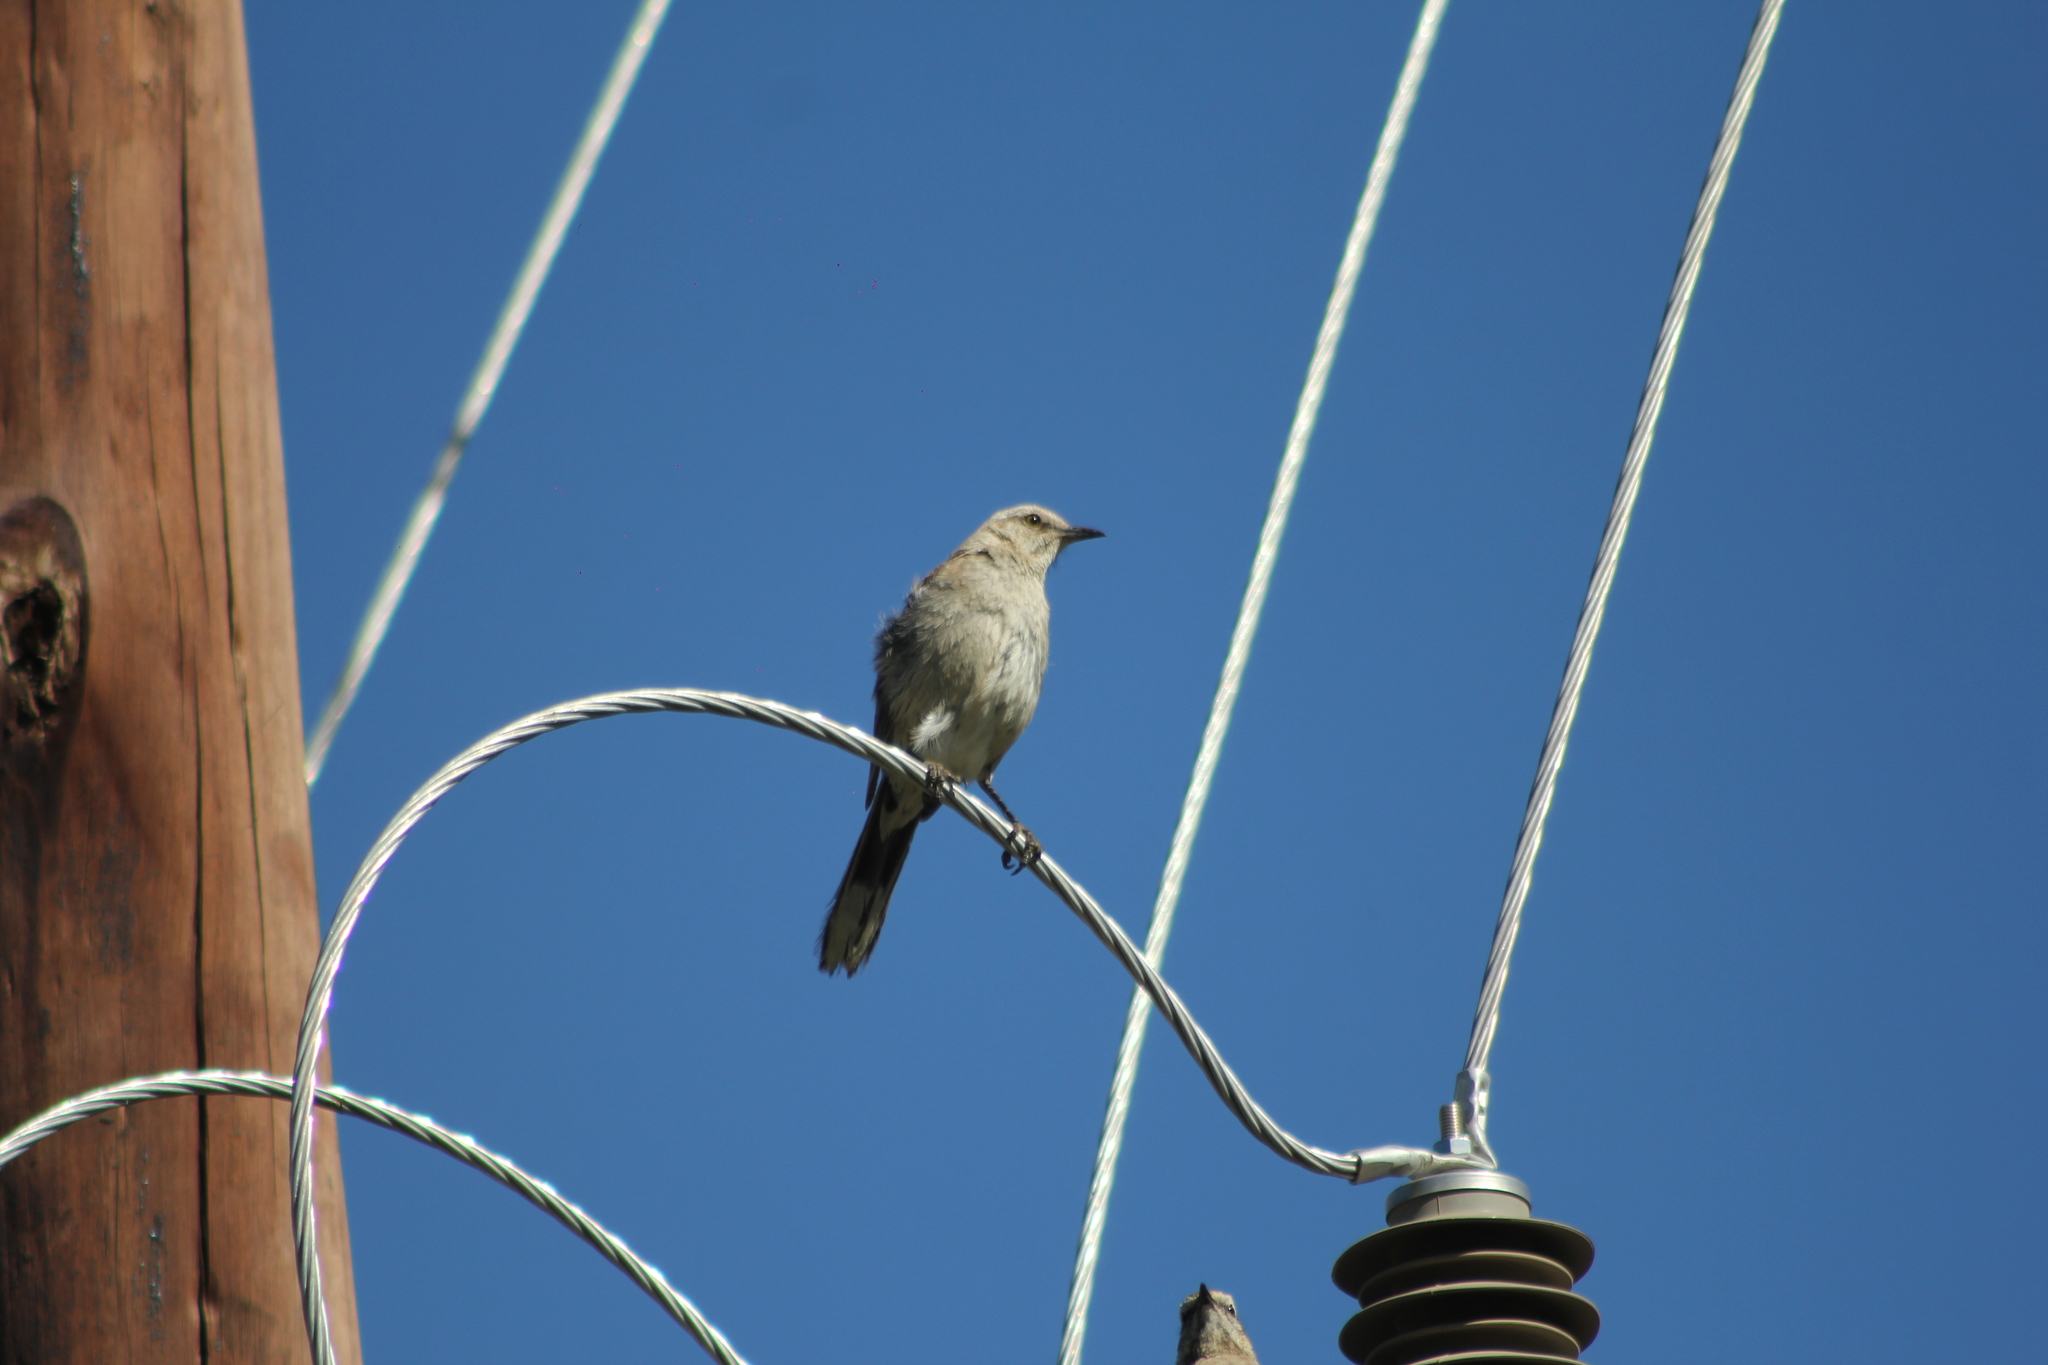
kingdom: Animalia
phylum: Chordata
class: Aves
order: Passeriformes
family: Mimidae
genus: Mimus
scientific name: Mimus thenca
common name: Chilean mockingbird
